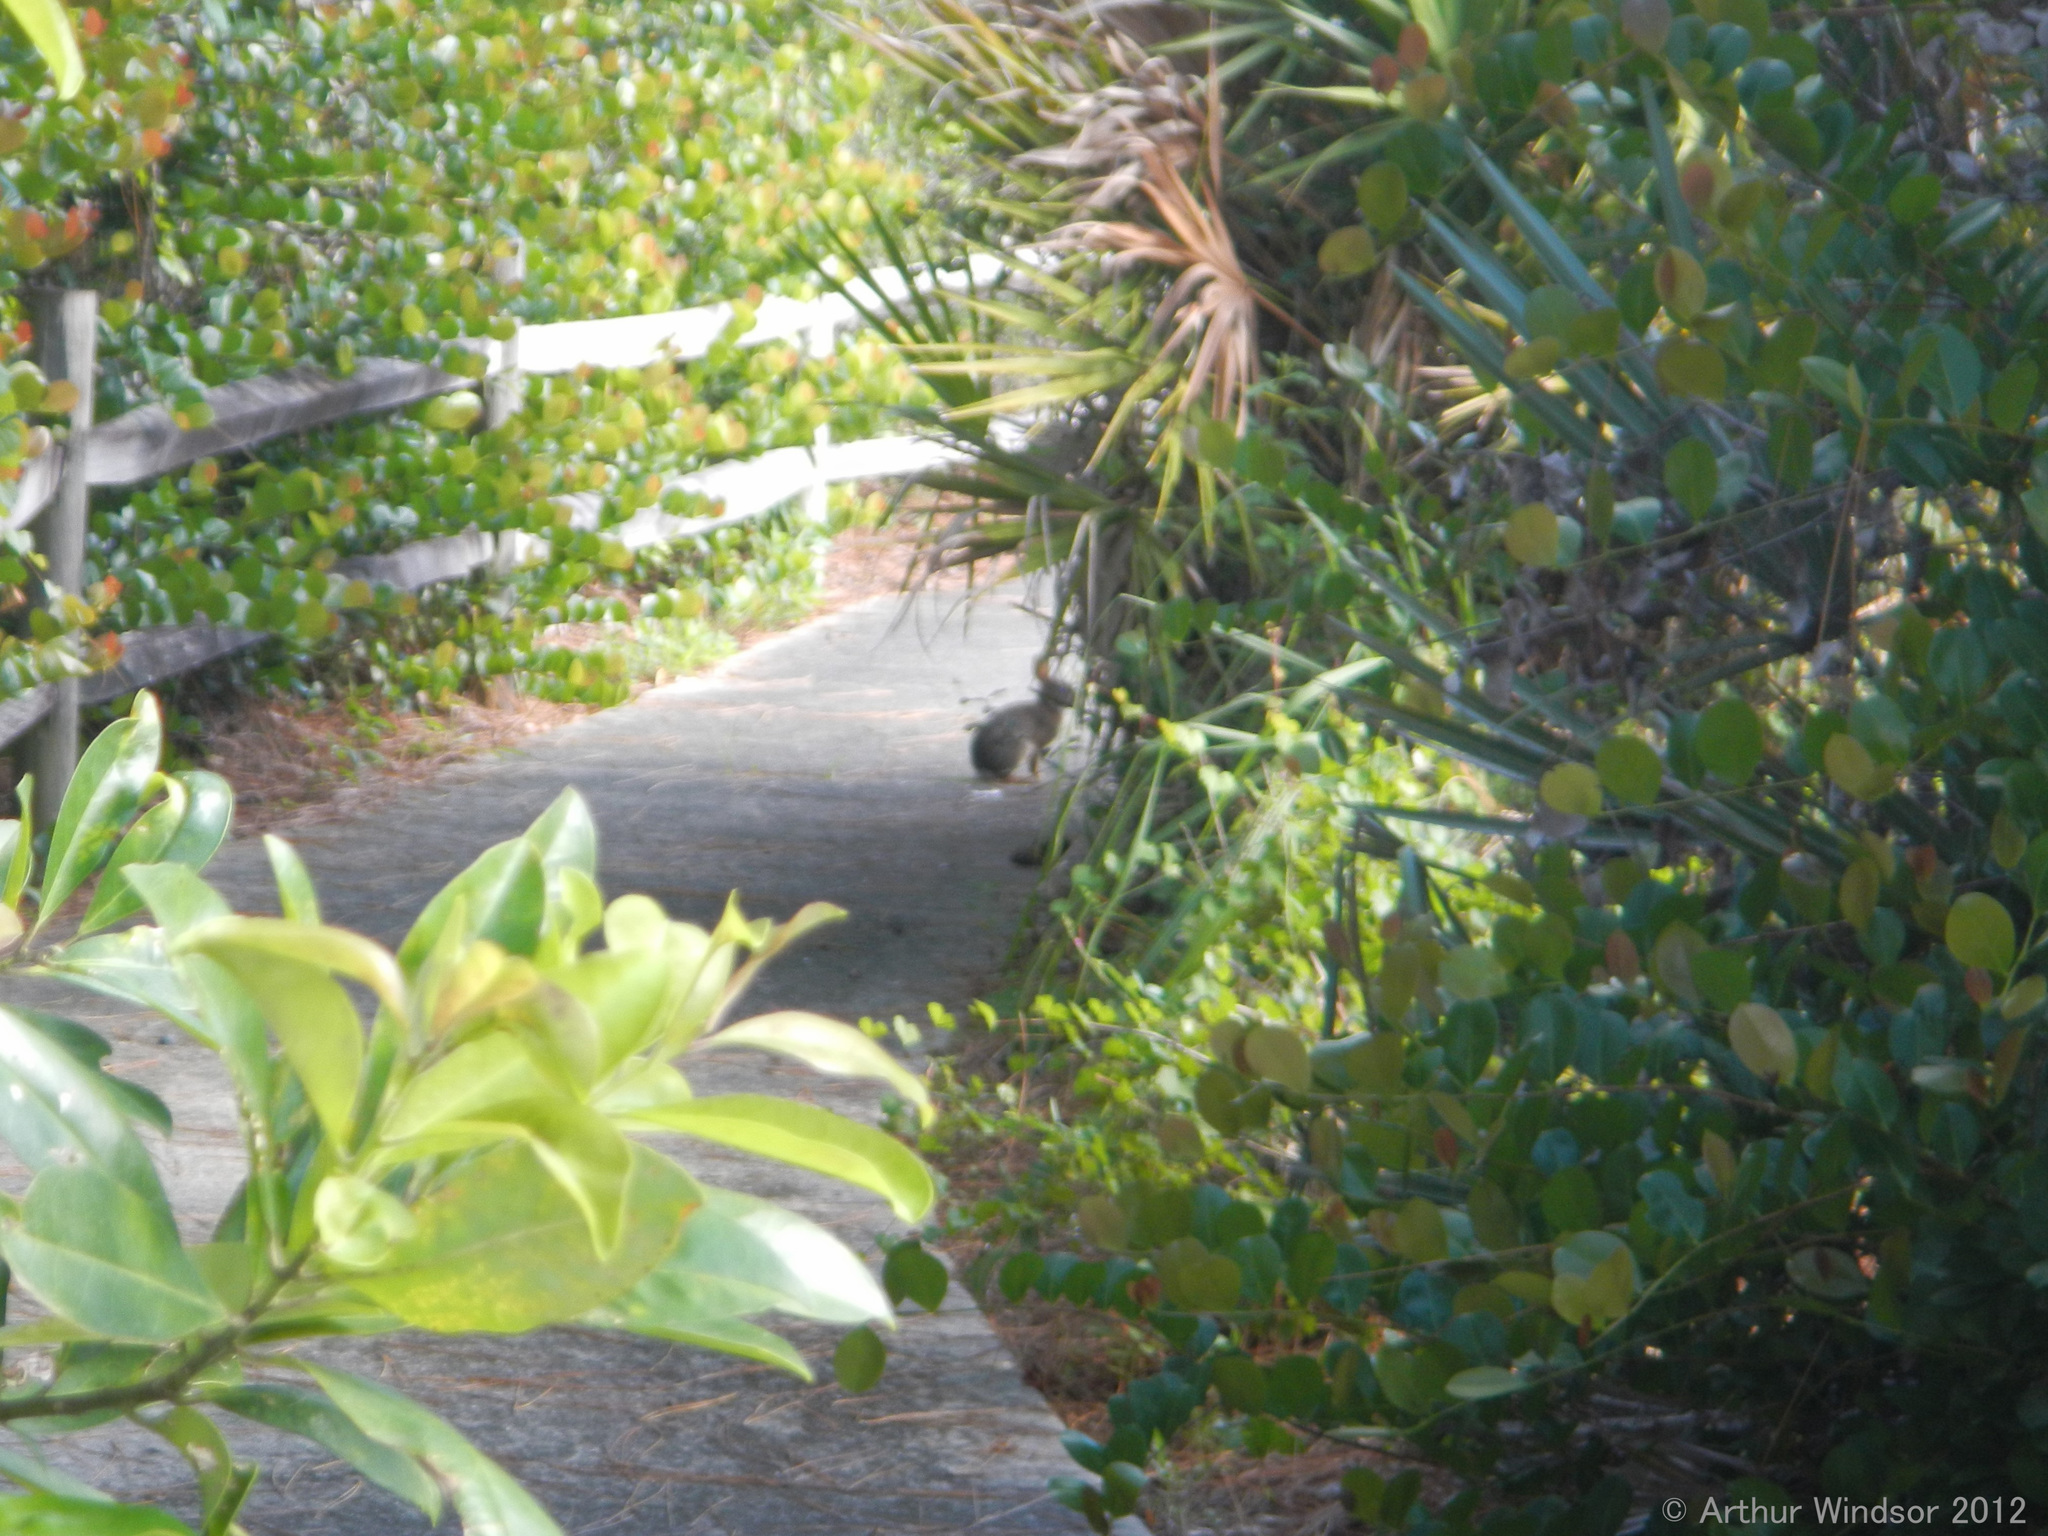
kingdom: Animalia
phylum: Chordata
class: Mammalia
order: Lagomorpha
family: Leporidae
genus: Sylvilagus
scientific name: Sylvilagus floridanus
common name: Eastern cottontail
